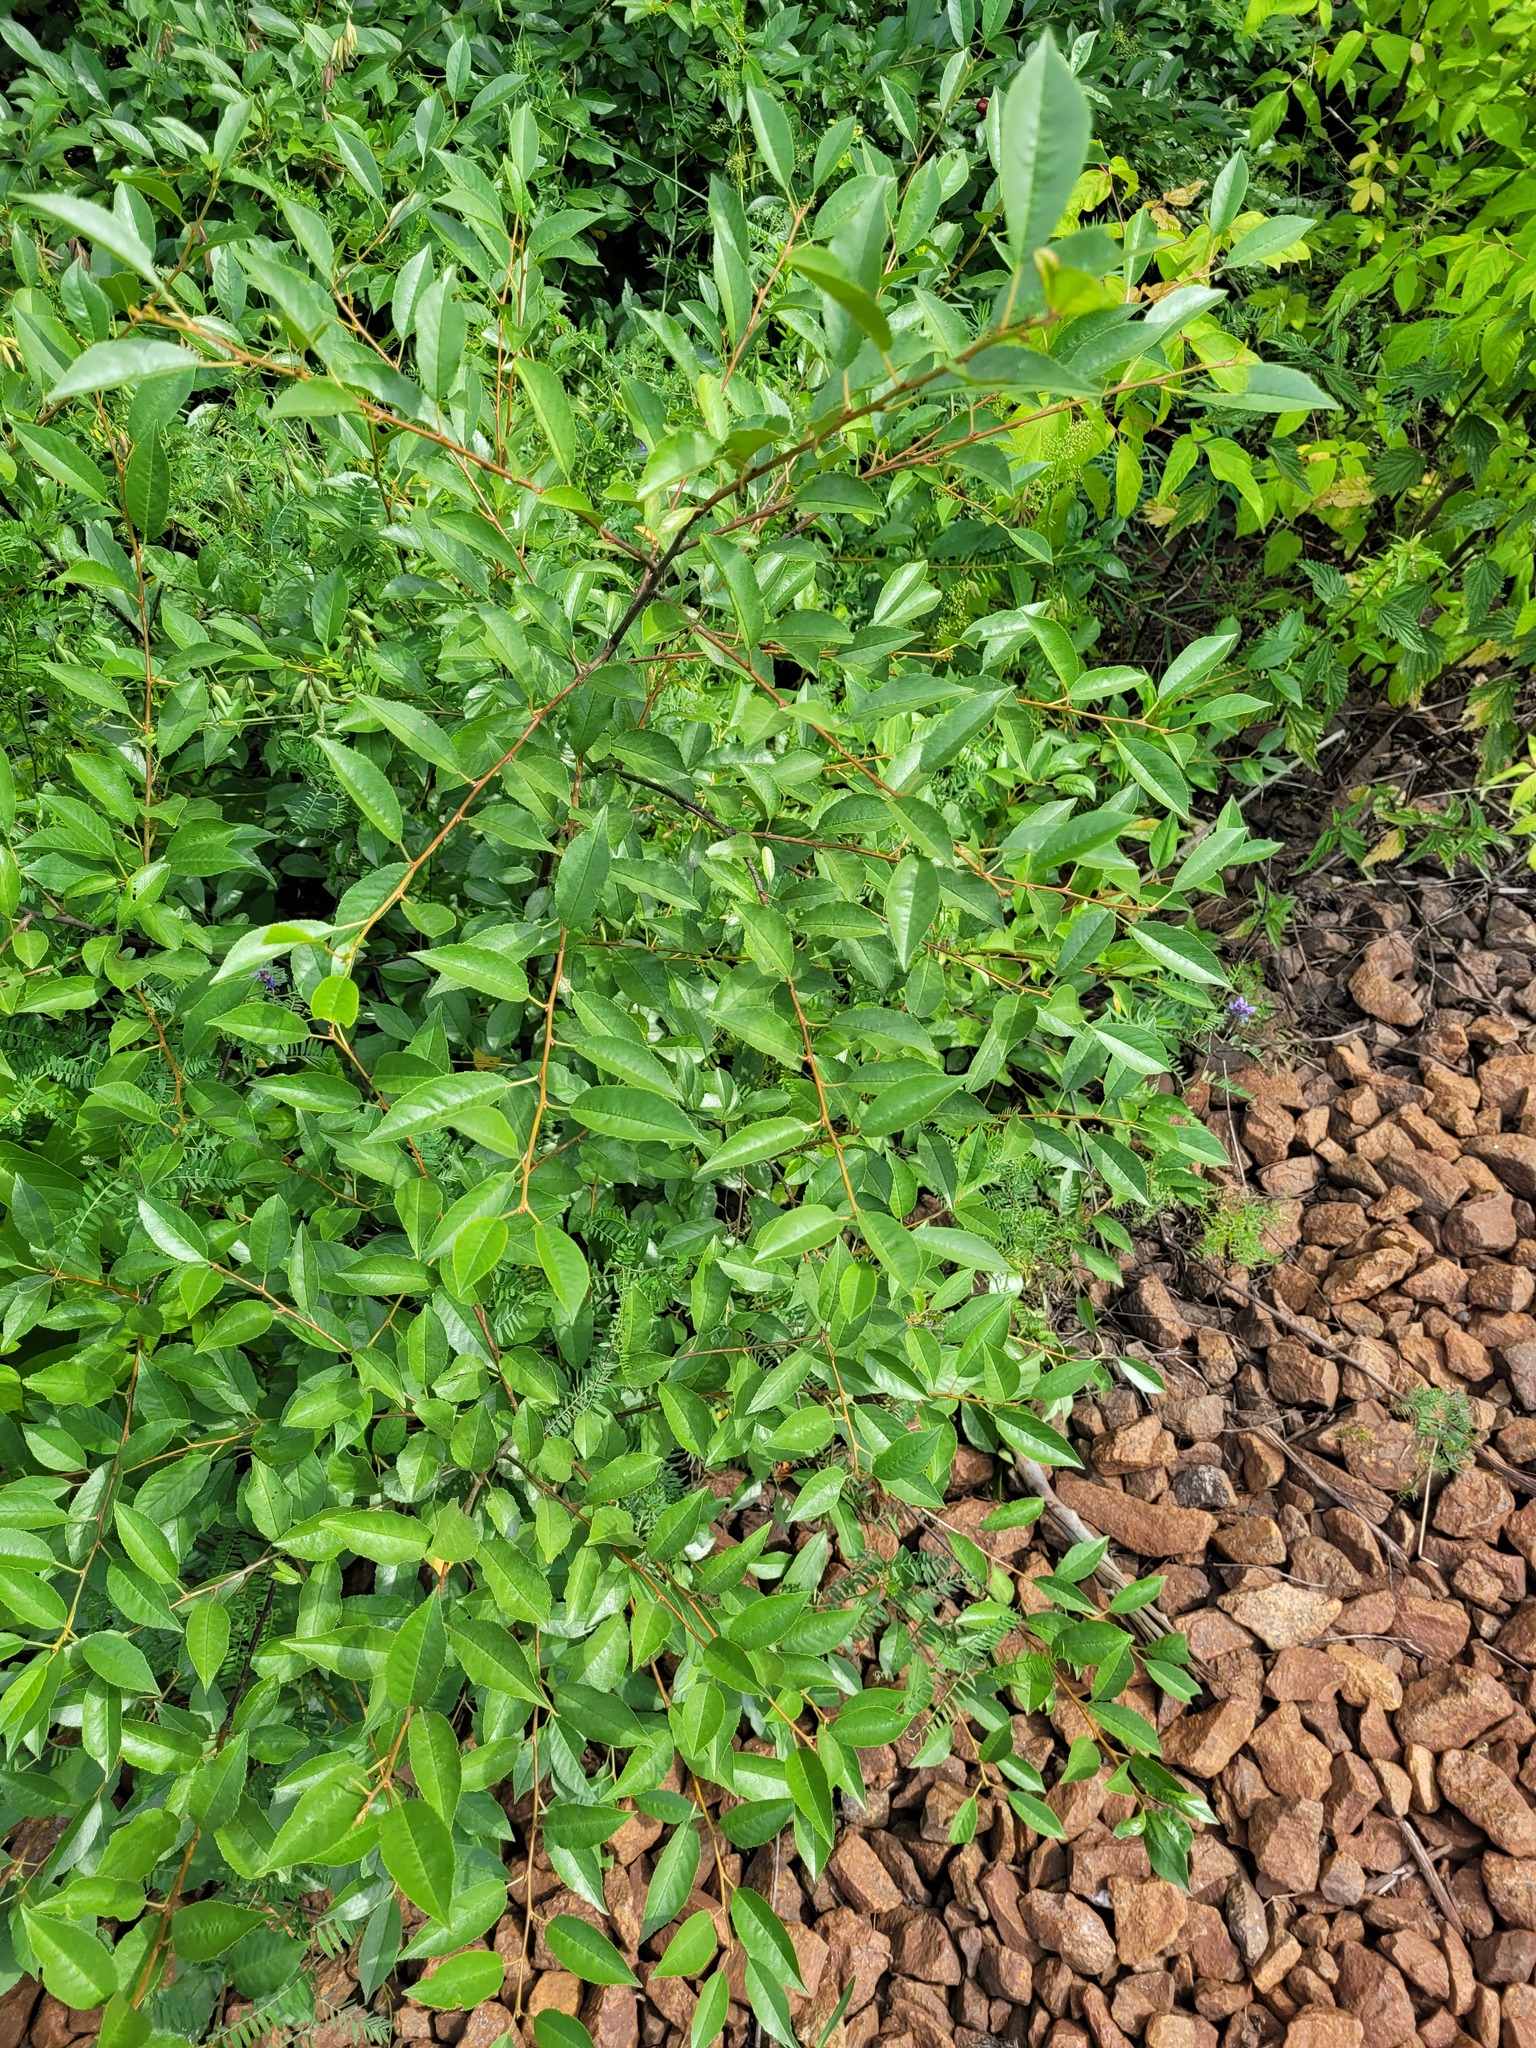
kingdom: Plantae
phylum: Tracheophyta
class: Magnoliopsida
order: Rosales
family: Rosaceae
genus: Prunus
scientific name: Prunus cerasus
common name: Morello cherry
